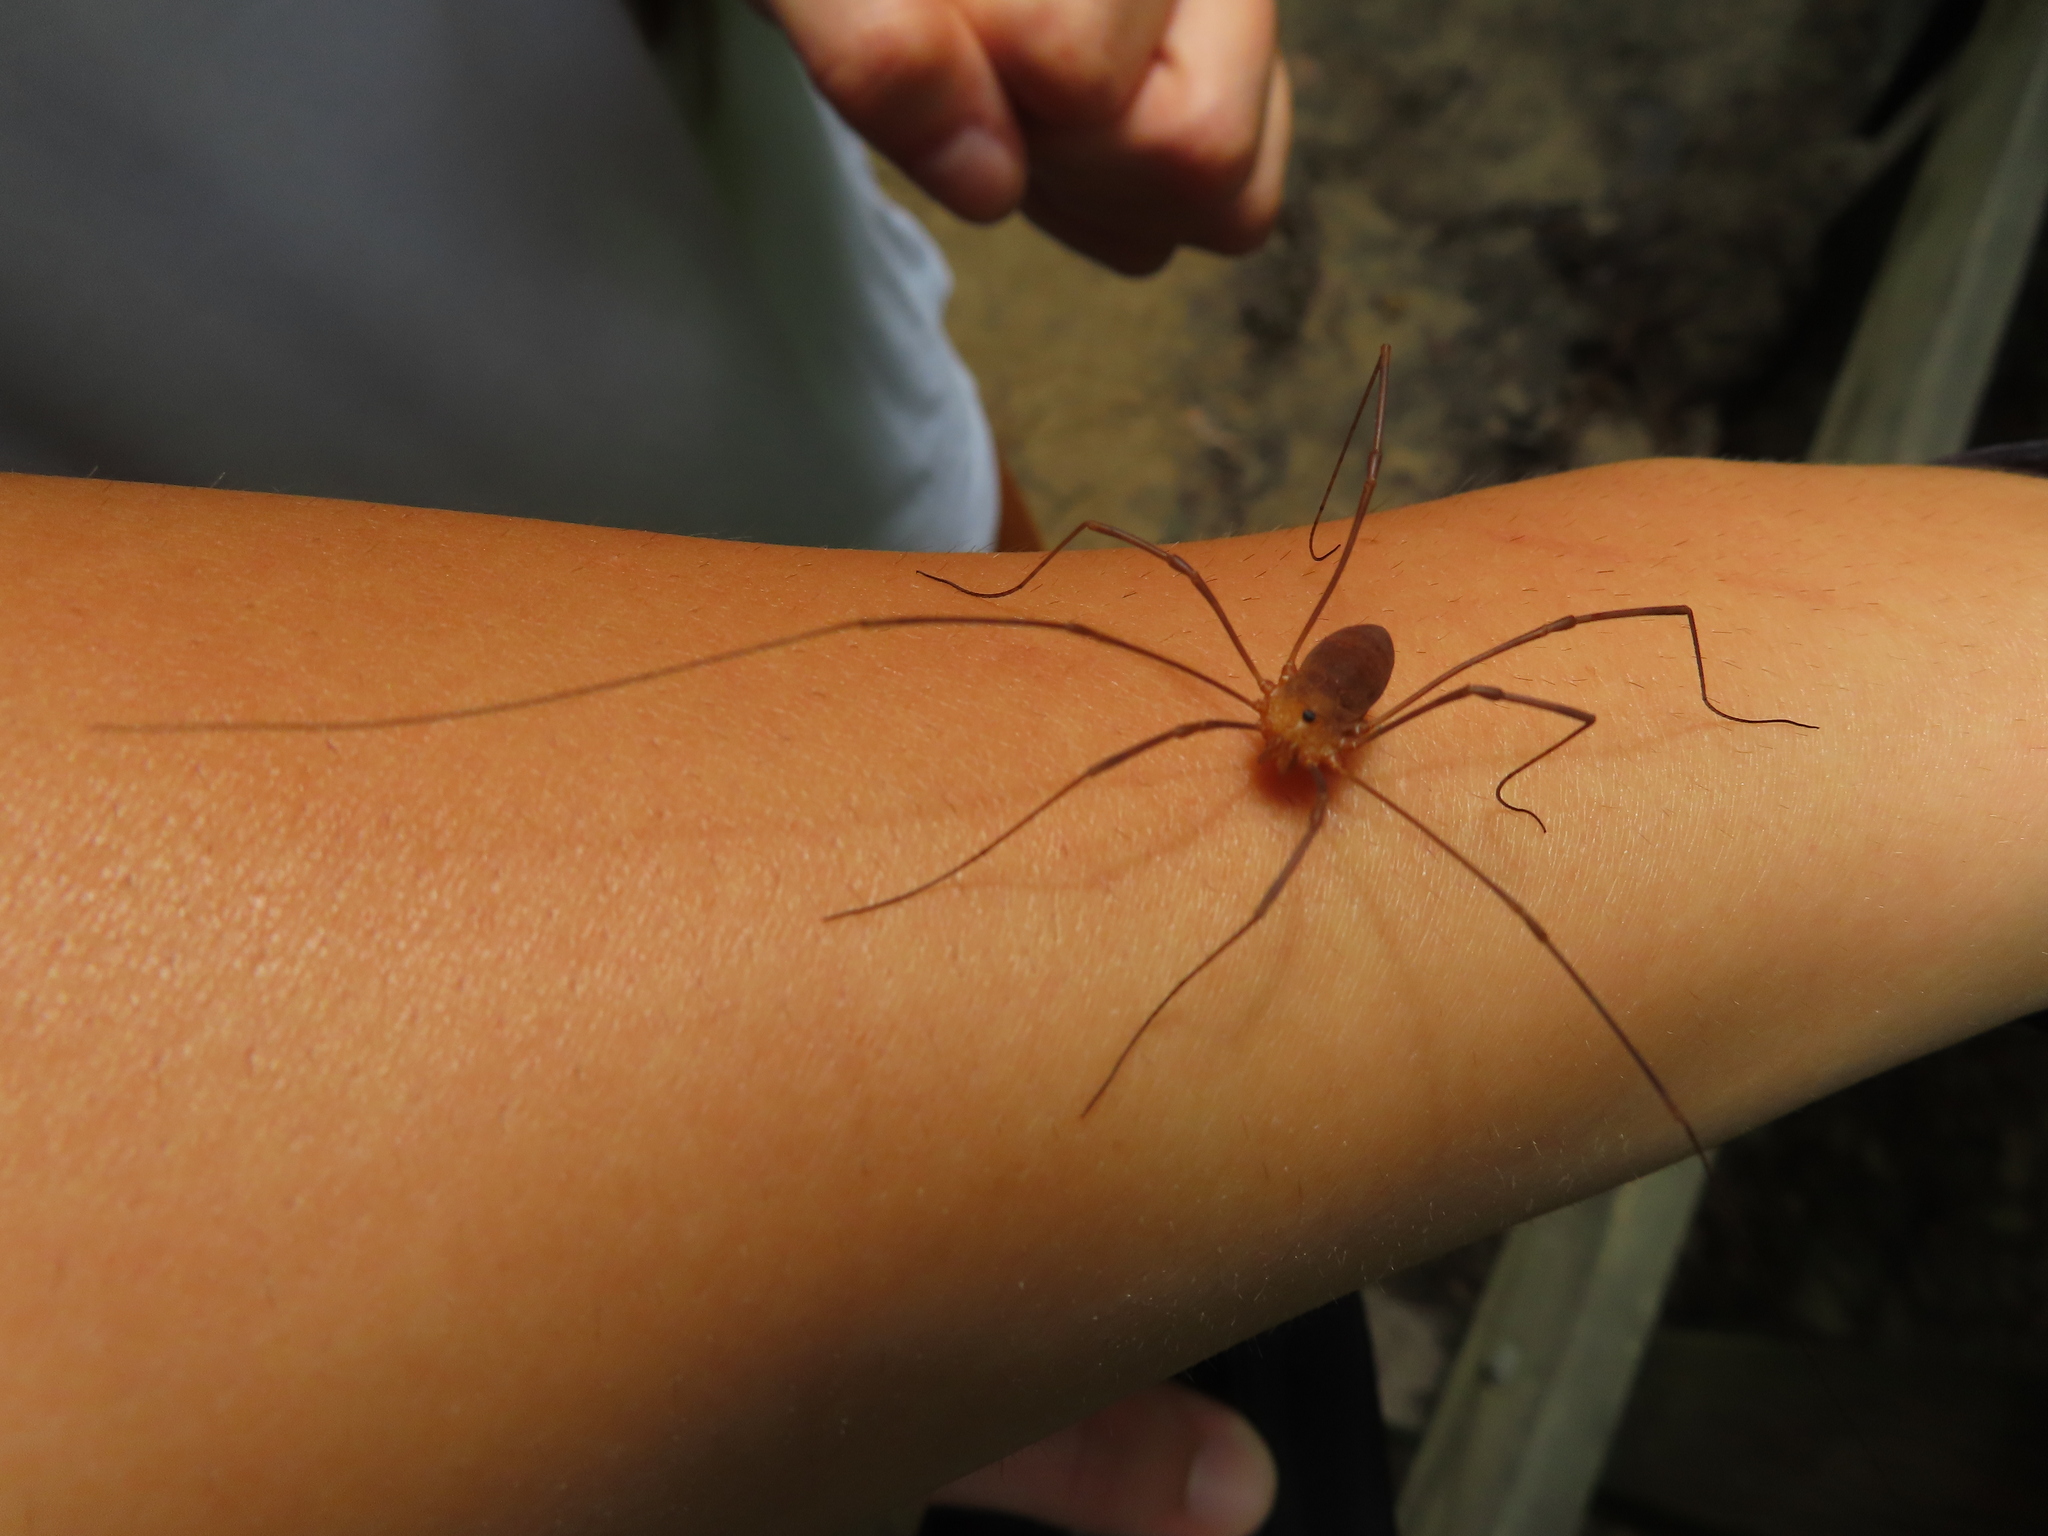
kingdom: Animalia
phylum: Arthropoda
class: Arachnida
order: Opiliones
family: Sclerosomatidae
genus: Leiobunum
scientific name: Leiobunum ventricosum
